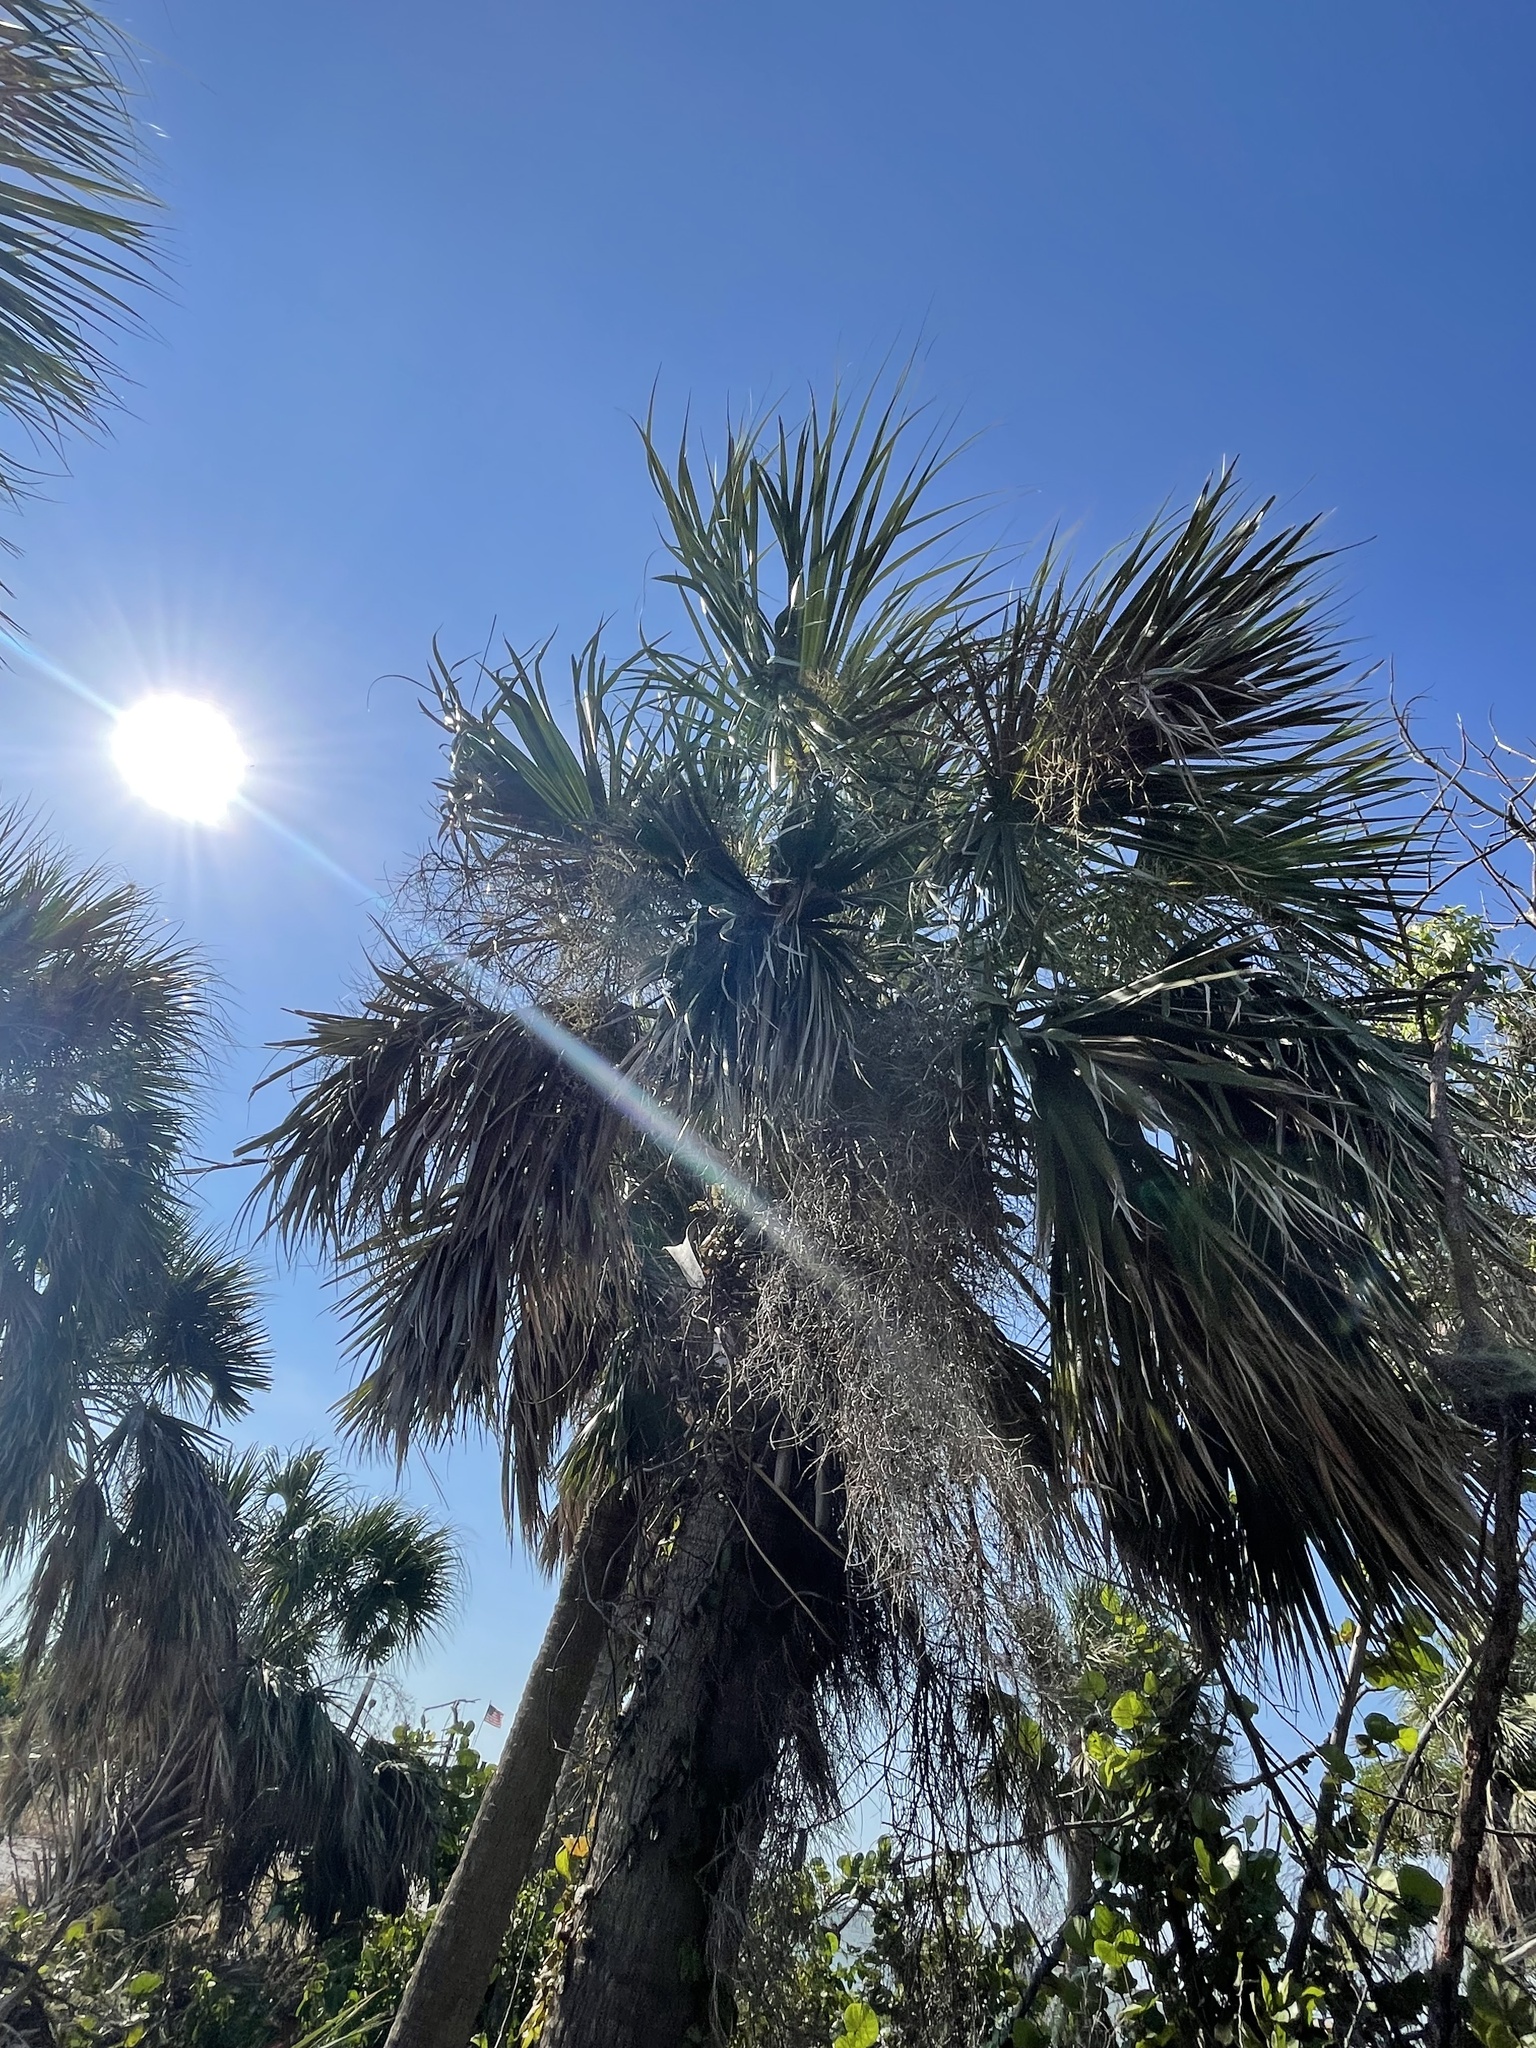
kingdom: Plantae
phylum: Tracheophyta
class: Liliopsida
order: Arecales
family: Arecaceae
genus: Sabal
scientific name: Sabal palmetto
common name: Blue palmetto
